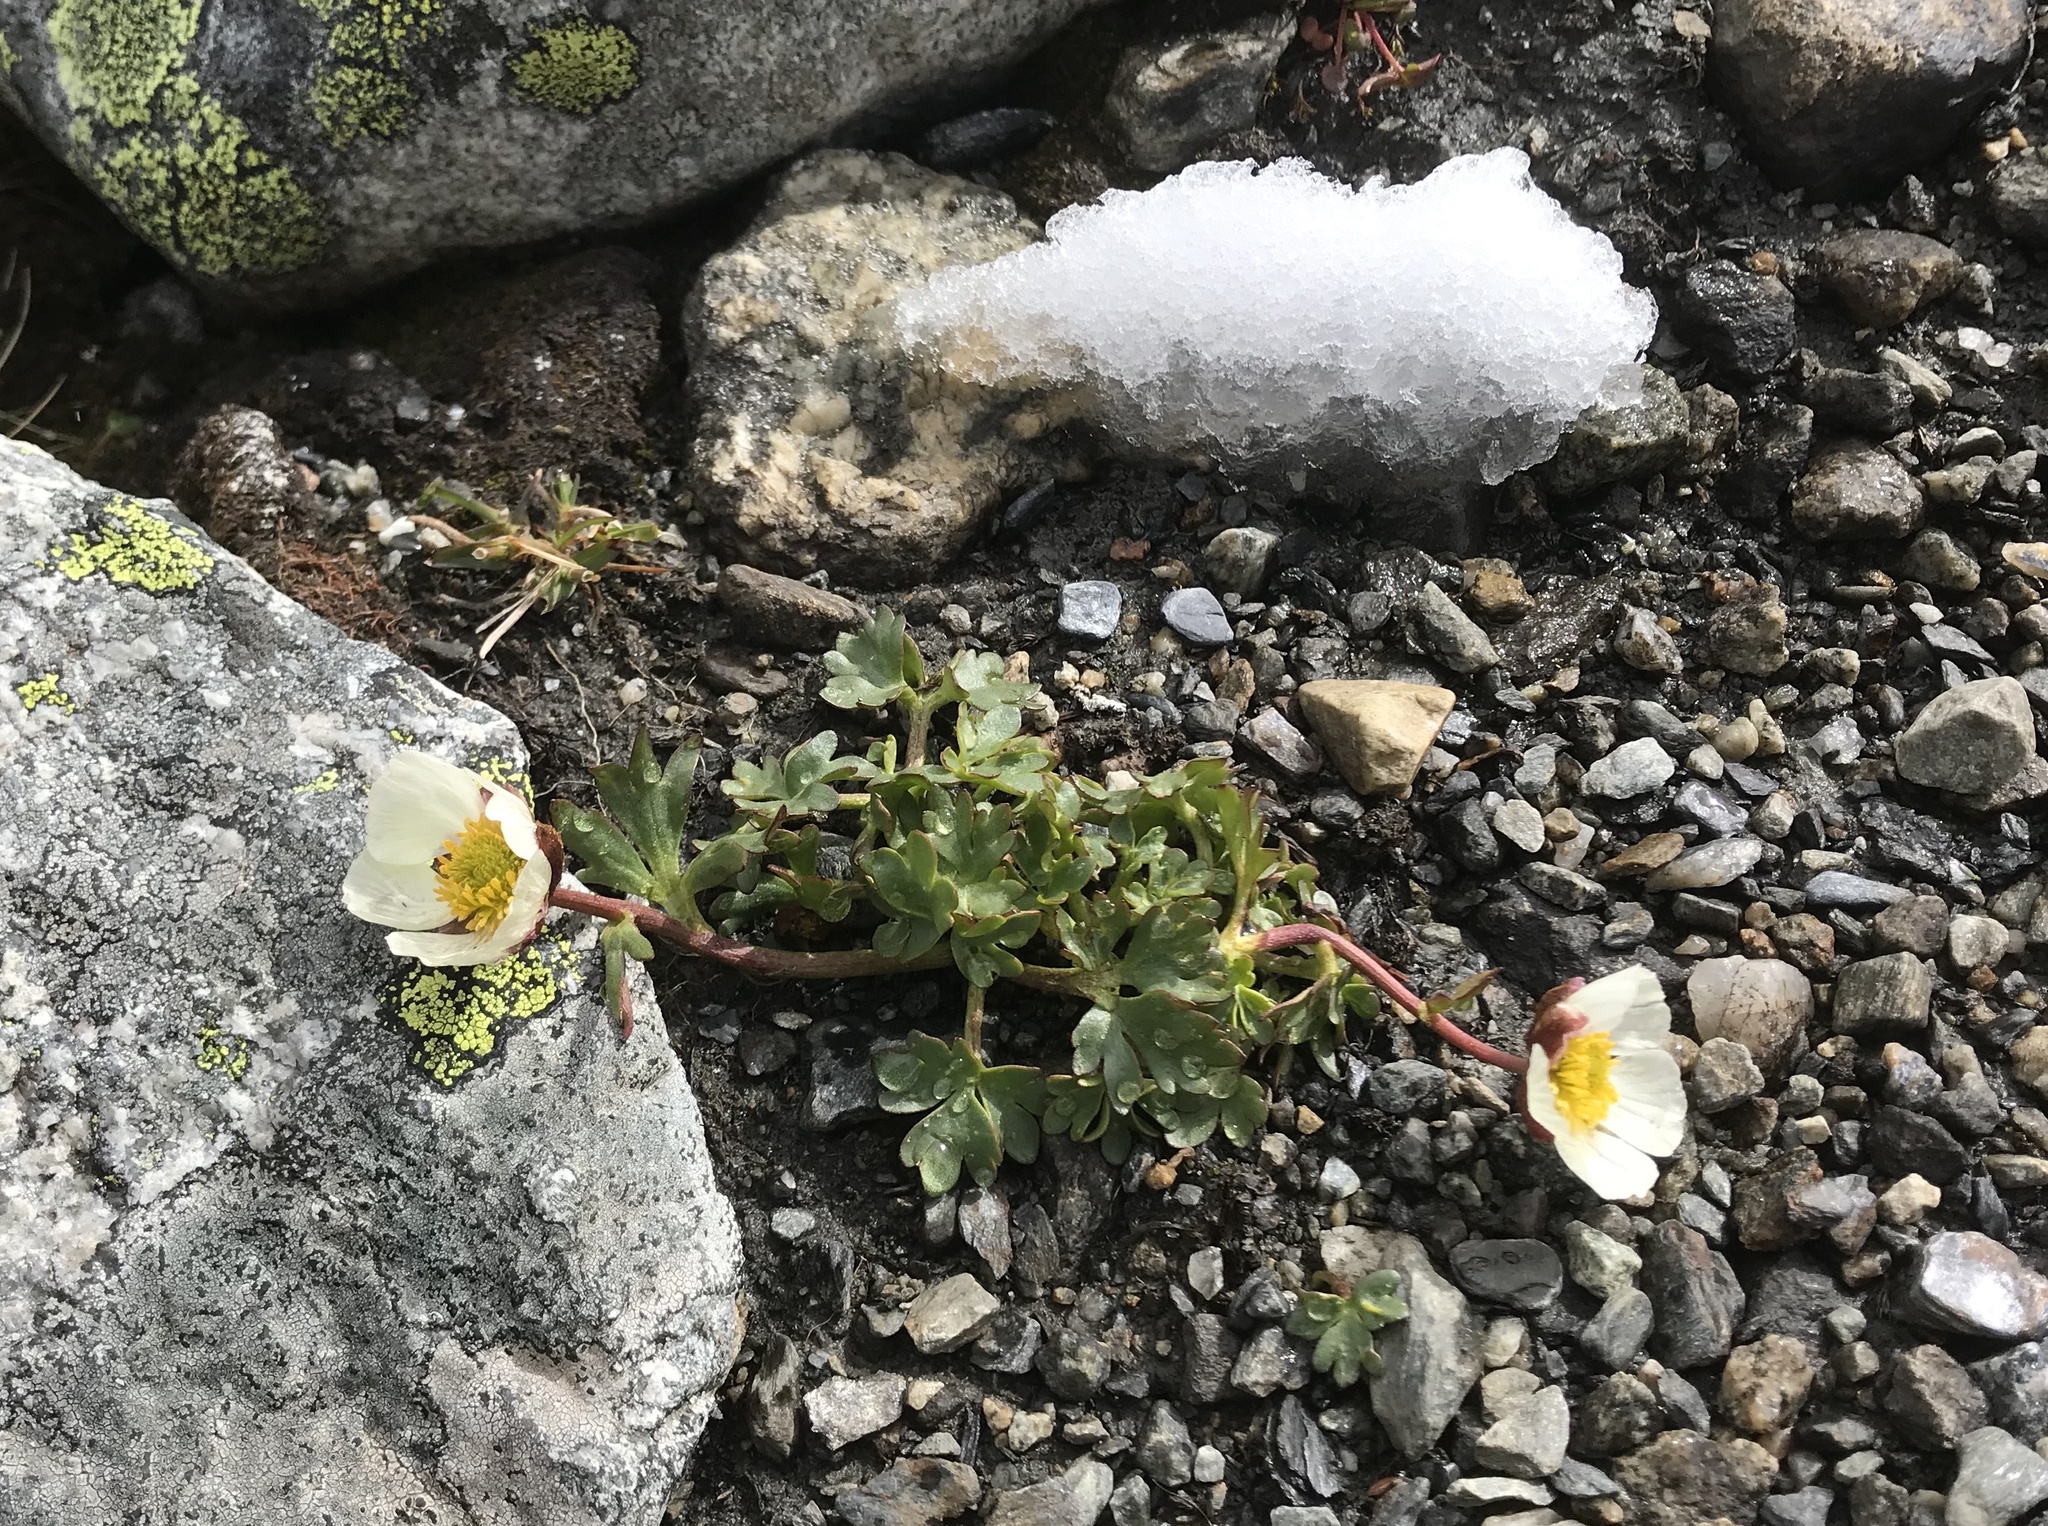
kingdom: Plantae
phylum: Tracheophyta
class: Magnoliopsida
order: Ranunculales
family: Ranunculaceae
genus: Ranunculus
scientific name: Ranunculus glacialis
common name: Glacier buttercup
